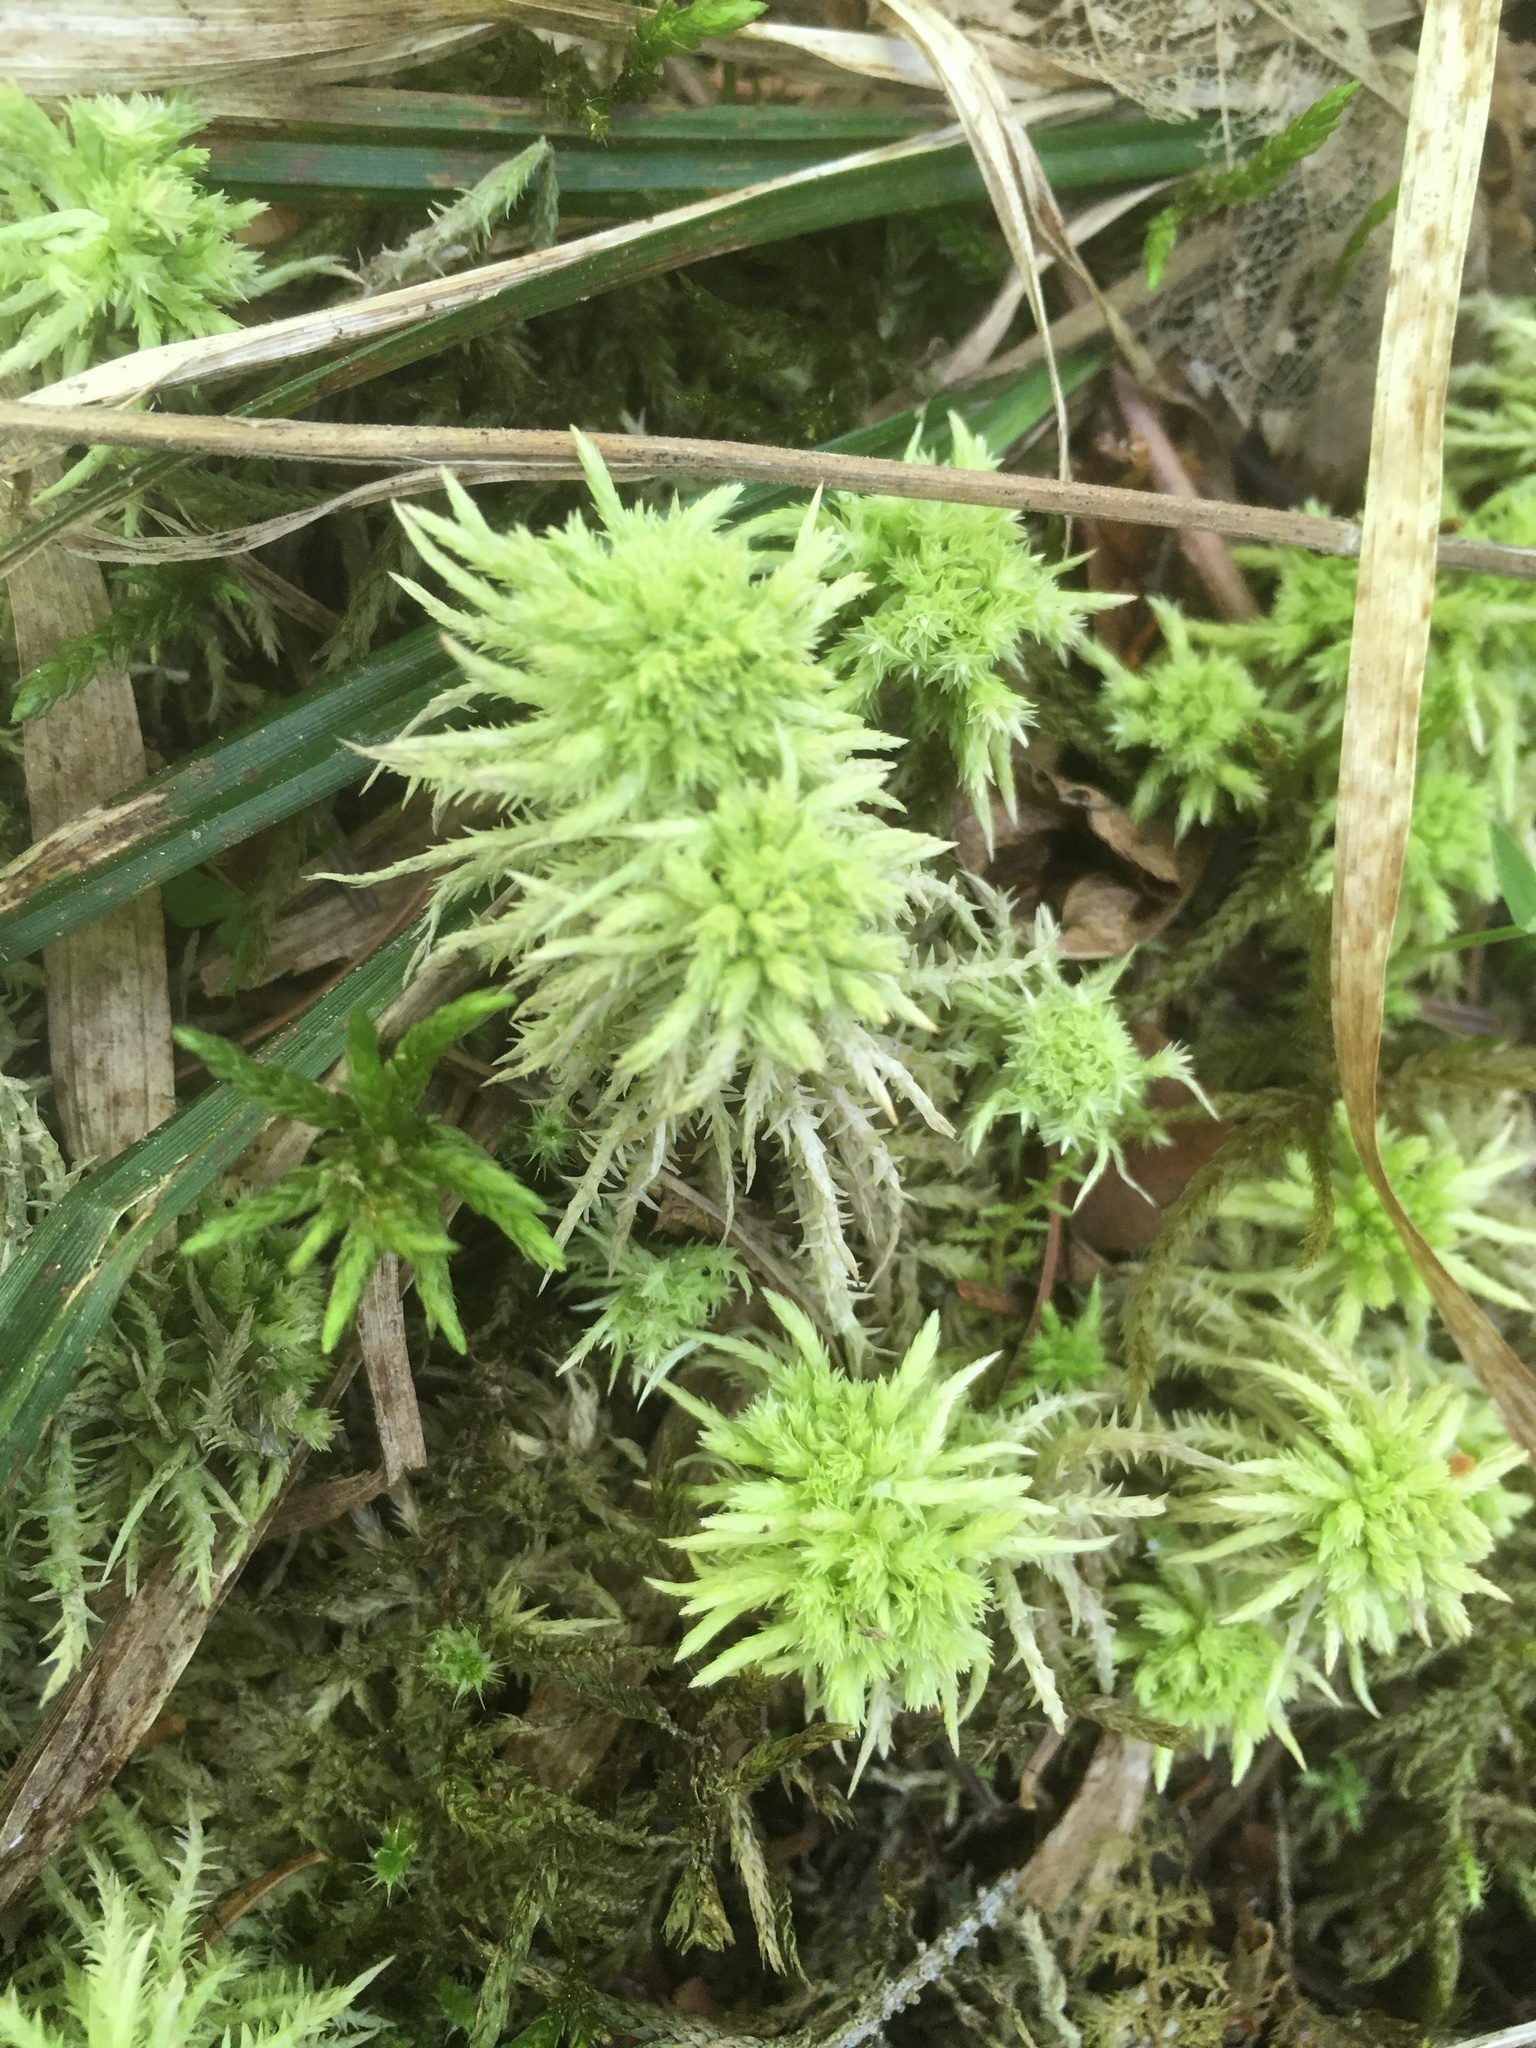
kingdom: Plantae
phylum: Bryophyta
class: Sphagnopsida
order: Sphagnales
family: Sphagnaceae
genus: Sphagnum
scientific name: Sphagnum squarrosum
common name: Shaggy peat moss
